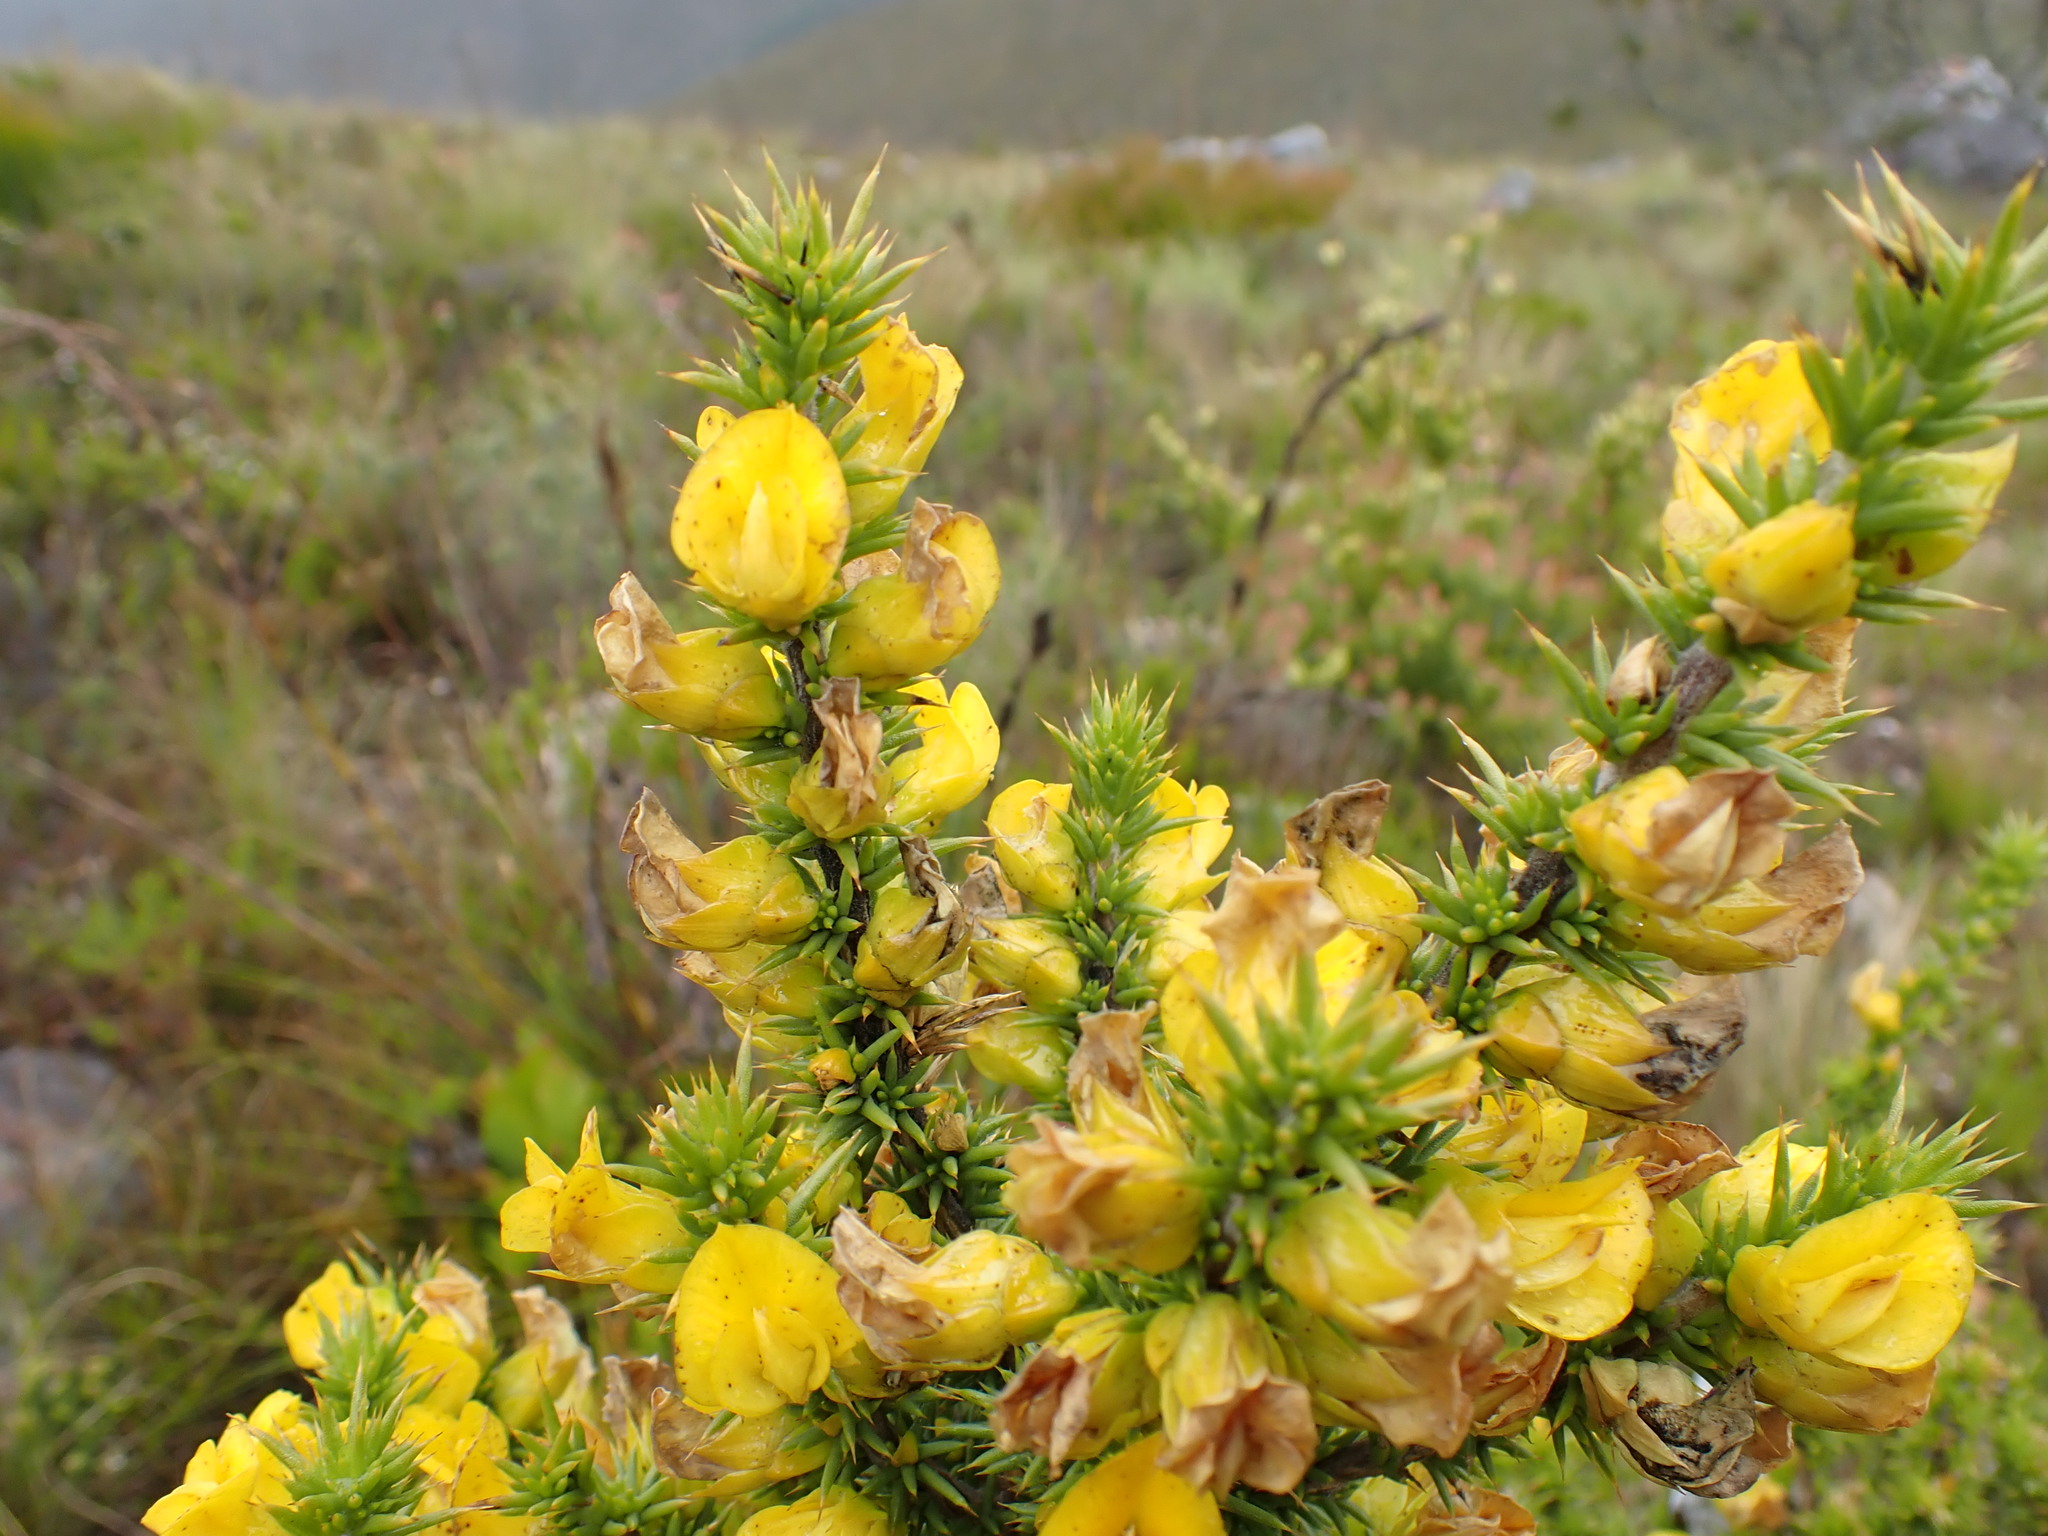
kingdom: Plantae
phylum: Tracheophyta
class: Magnoliopsida
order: Fabales
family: Fabaceae
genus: Aspalathus
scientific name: Aspalathus aciphylla
